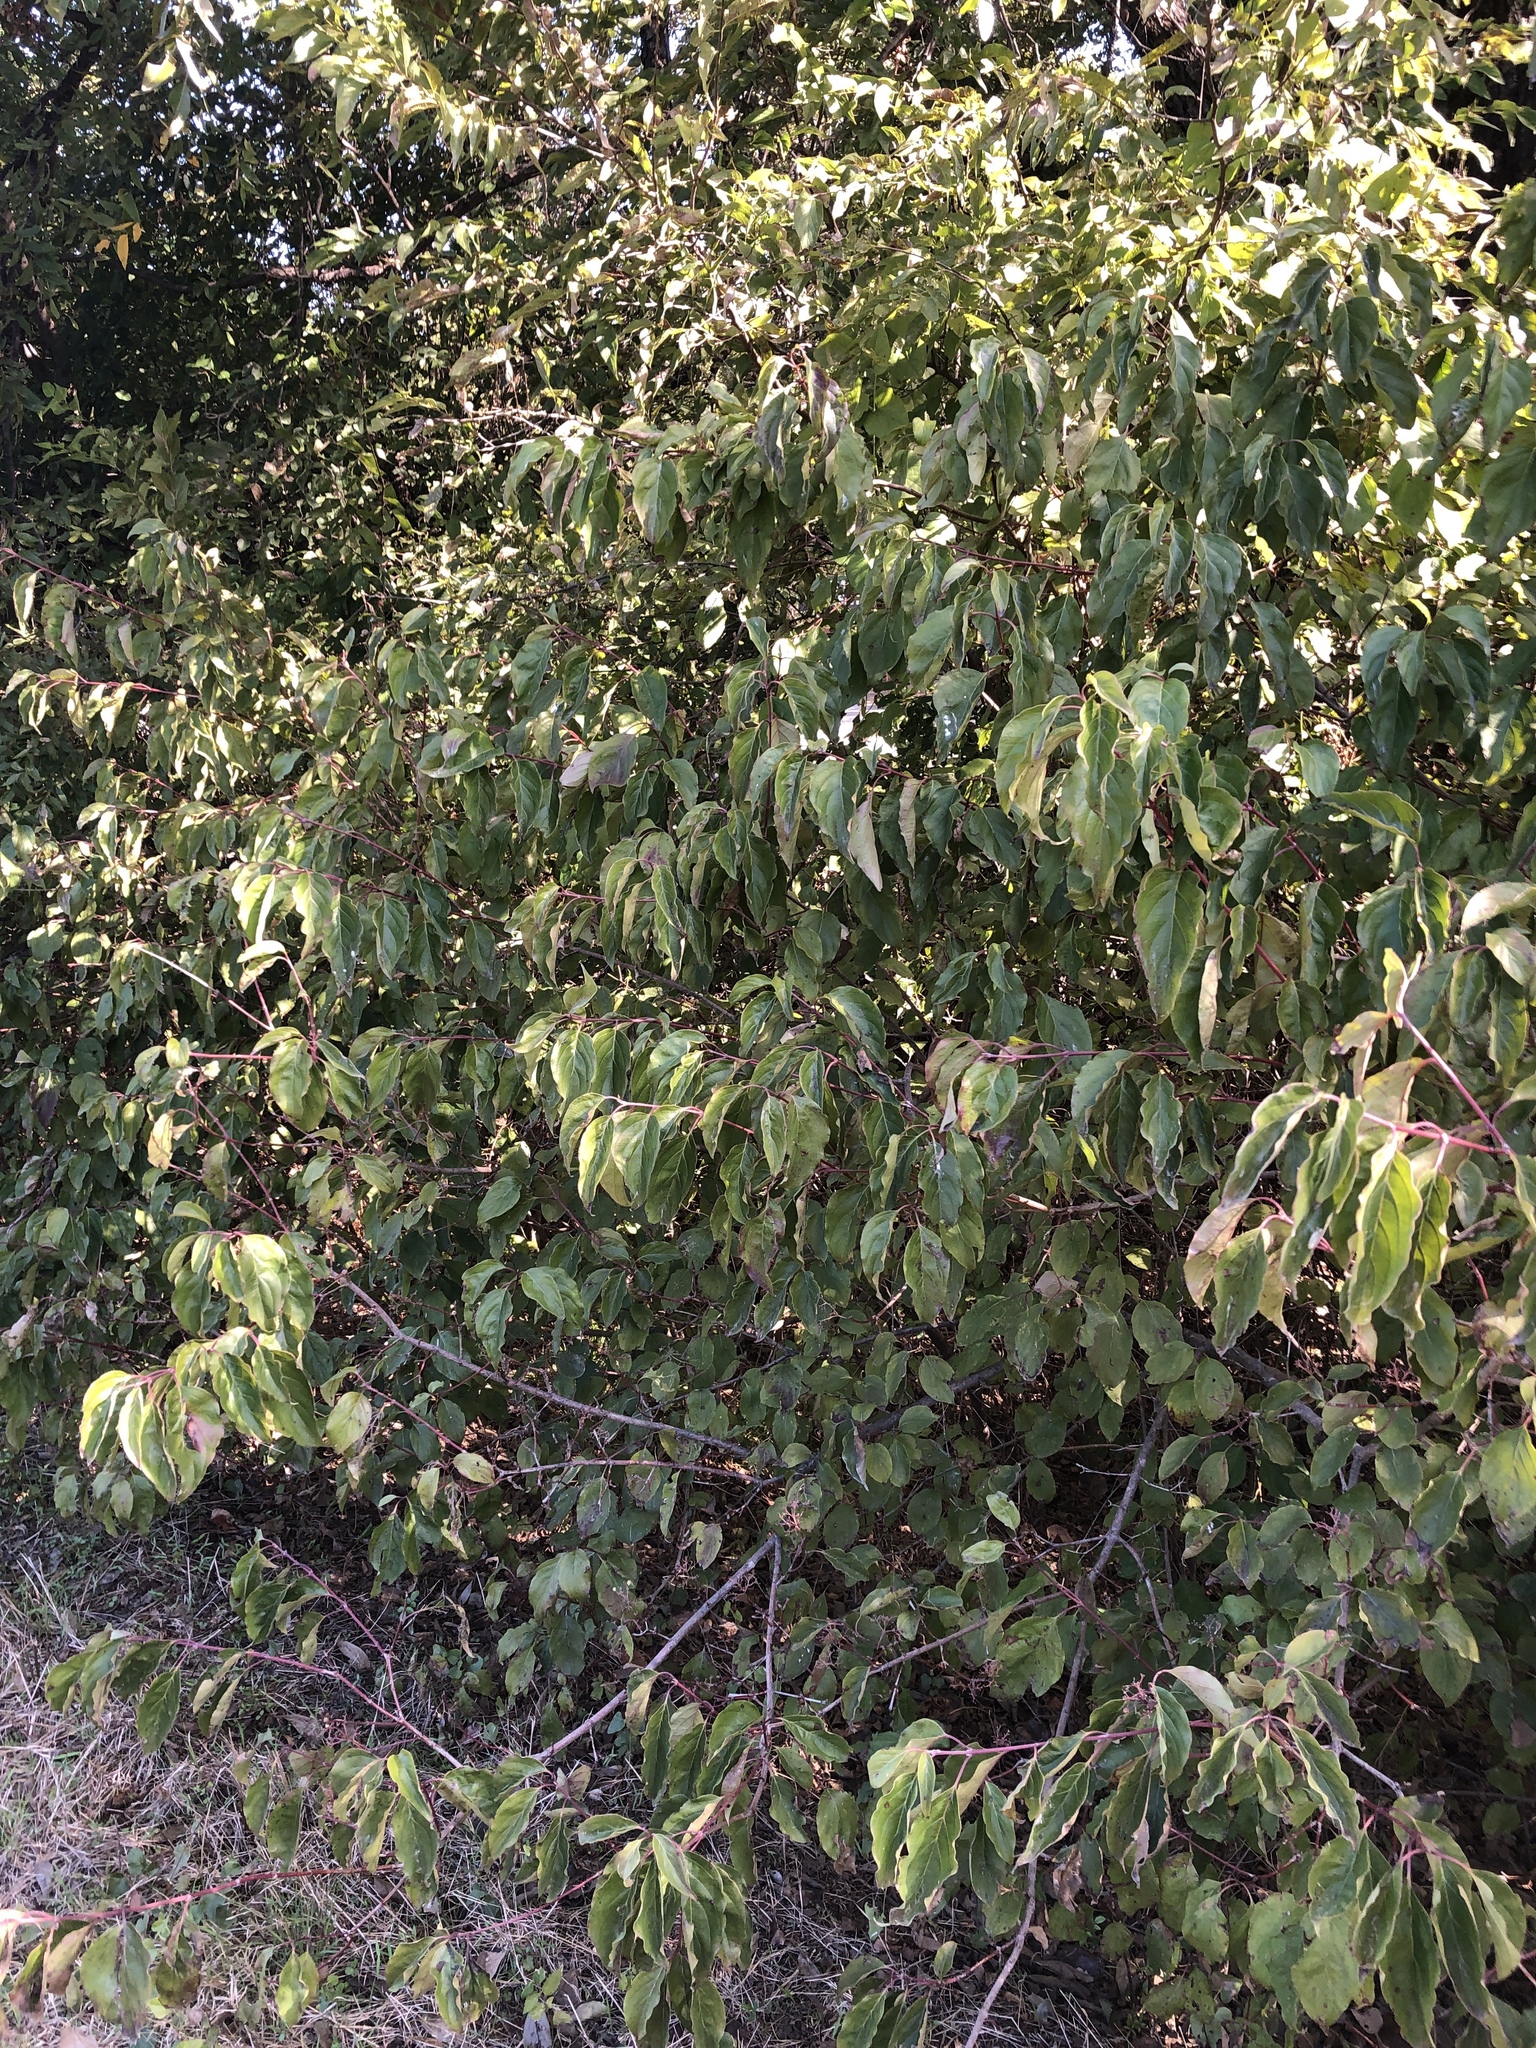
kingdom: Plantae
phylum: Tracheophyta
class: Magnoliopsida
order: Cornales
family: Cornaceae
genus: Cornus
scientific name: Cornus drummondii
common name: Rough-leaf dogwood
